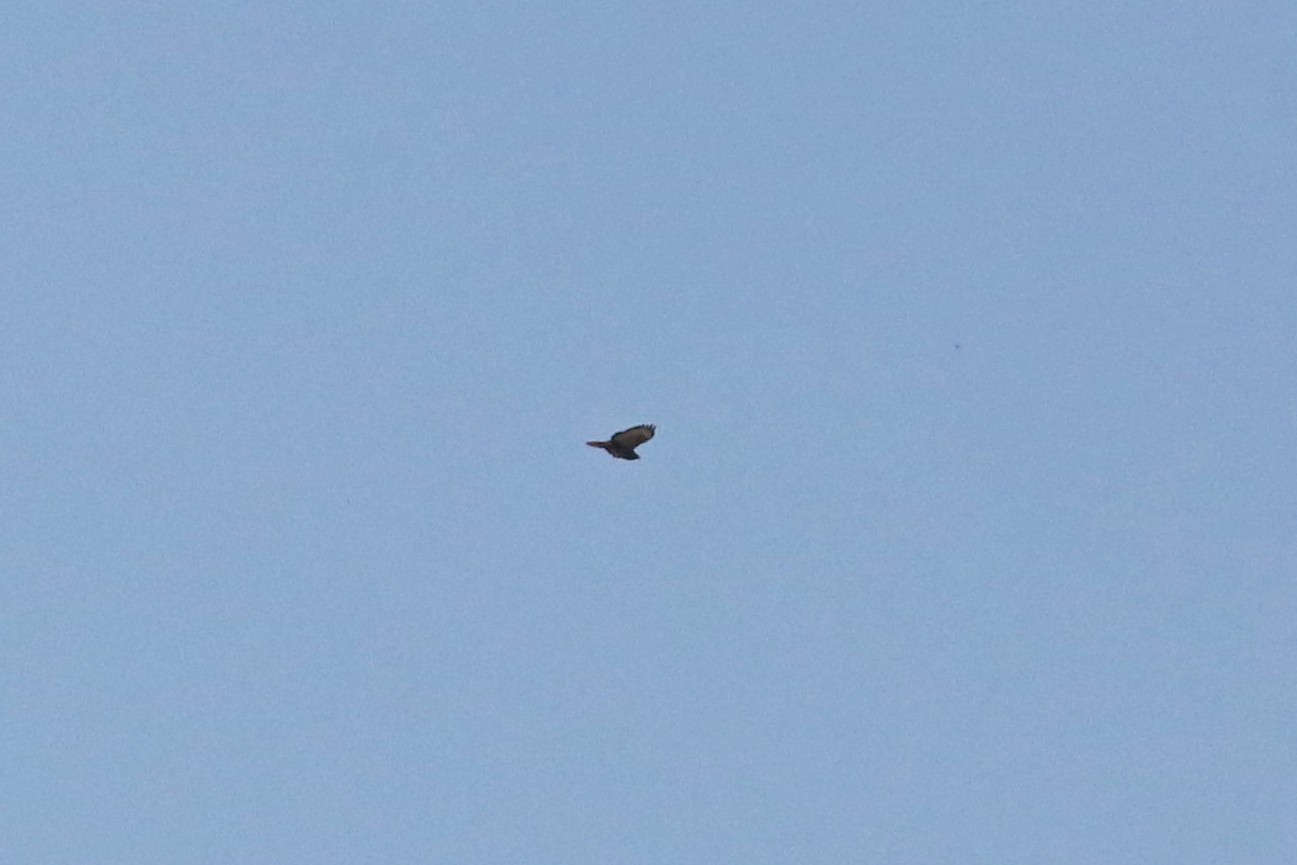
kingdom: Animalia
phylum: Chordata
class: Aves
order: Accipitriformes
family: Accipitridae
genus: Buteo
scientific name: Buteo buteo
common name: Common buzzard
